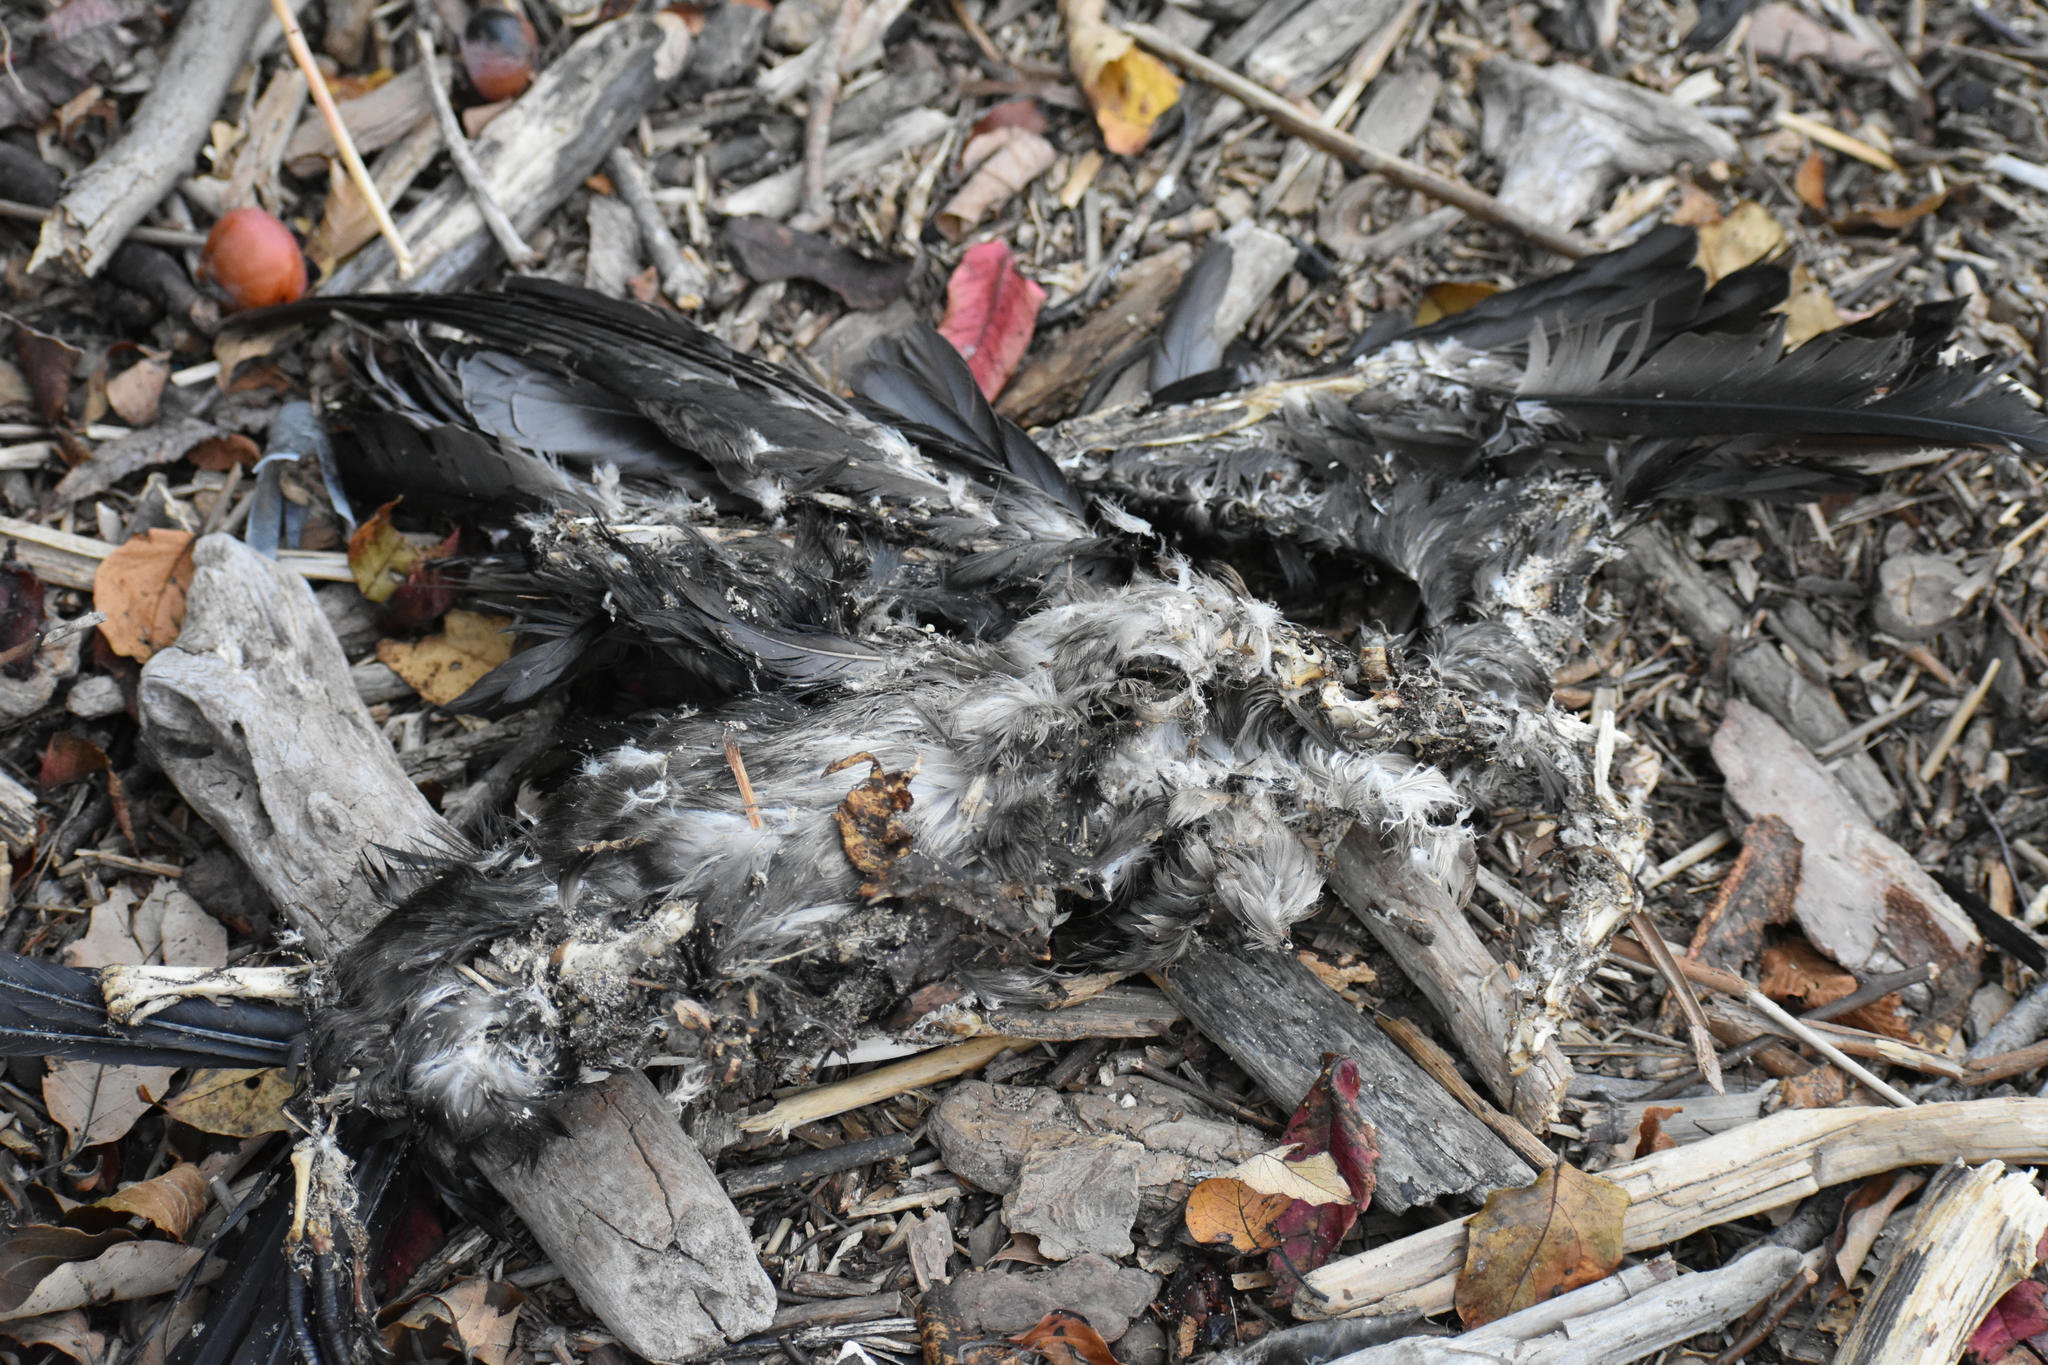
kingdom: Animalia
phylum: Chordata
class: Aves
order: Suliformes
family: Phalacrocoracidae
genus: Phalacrocorax
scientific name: Phalacrocorax auritus
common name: Double-crested cormorant
